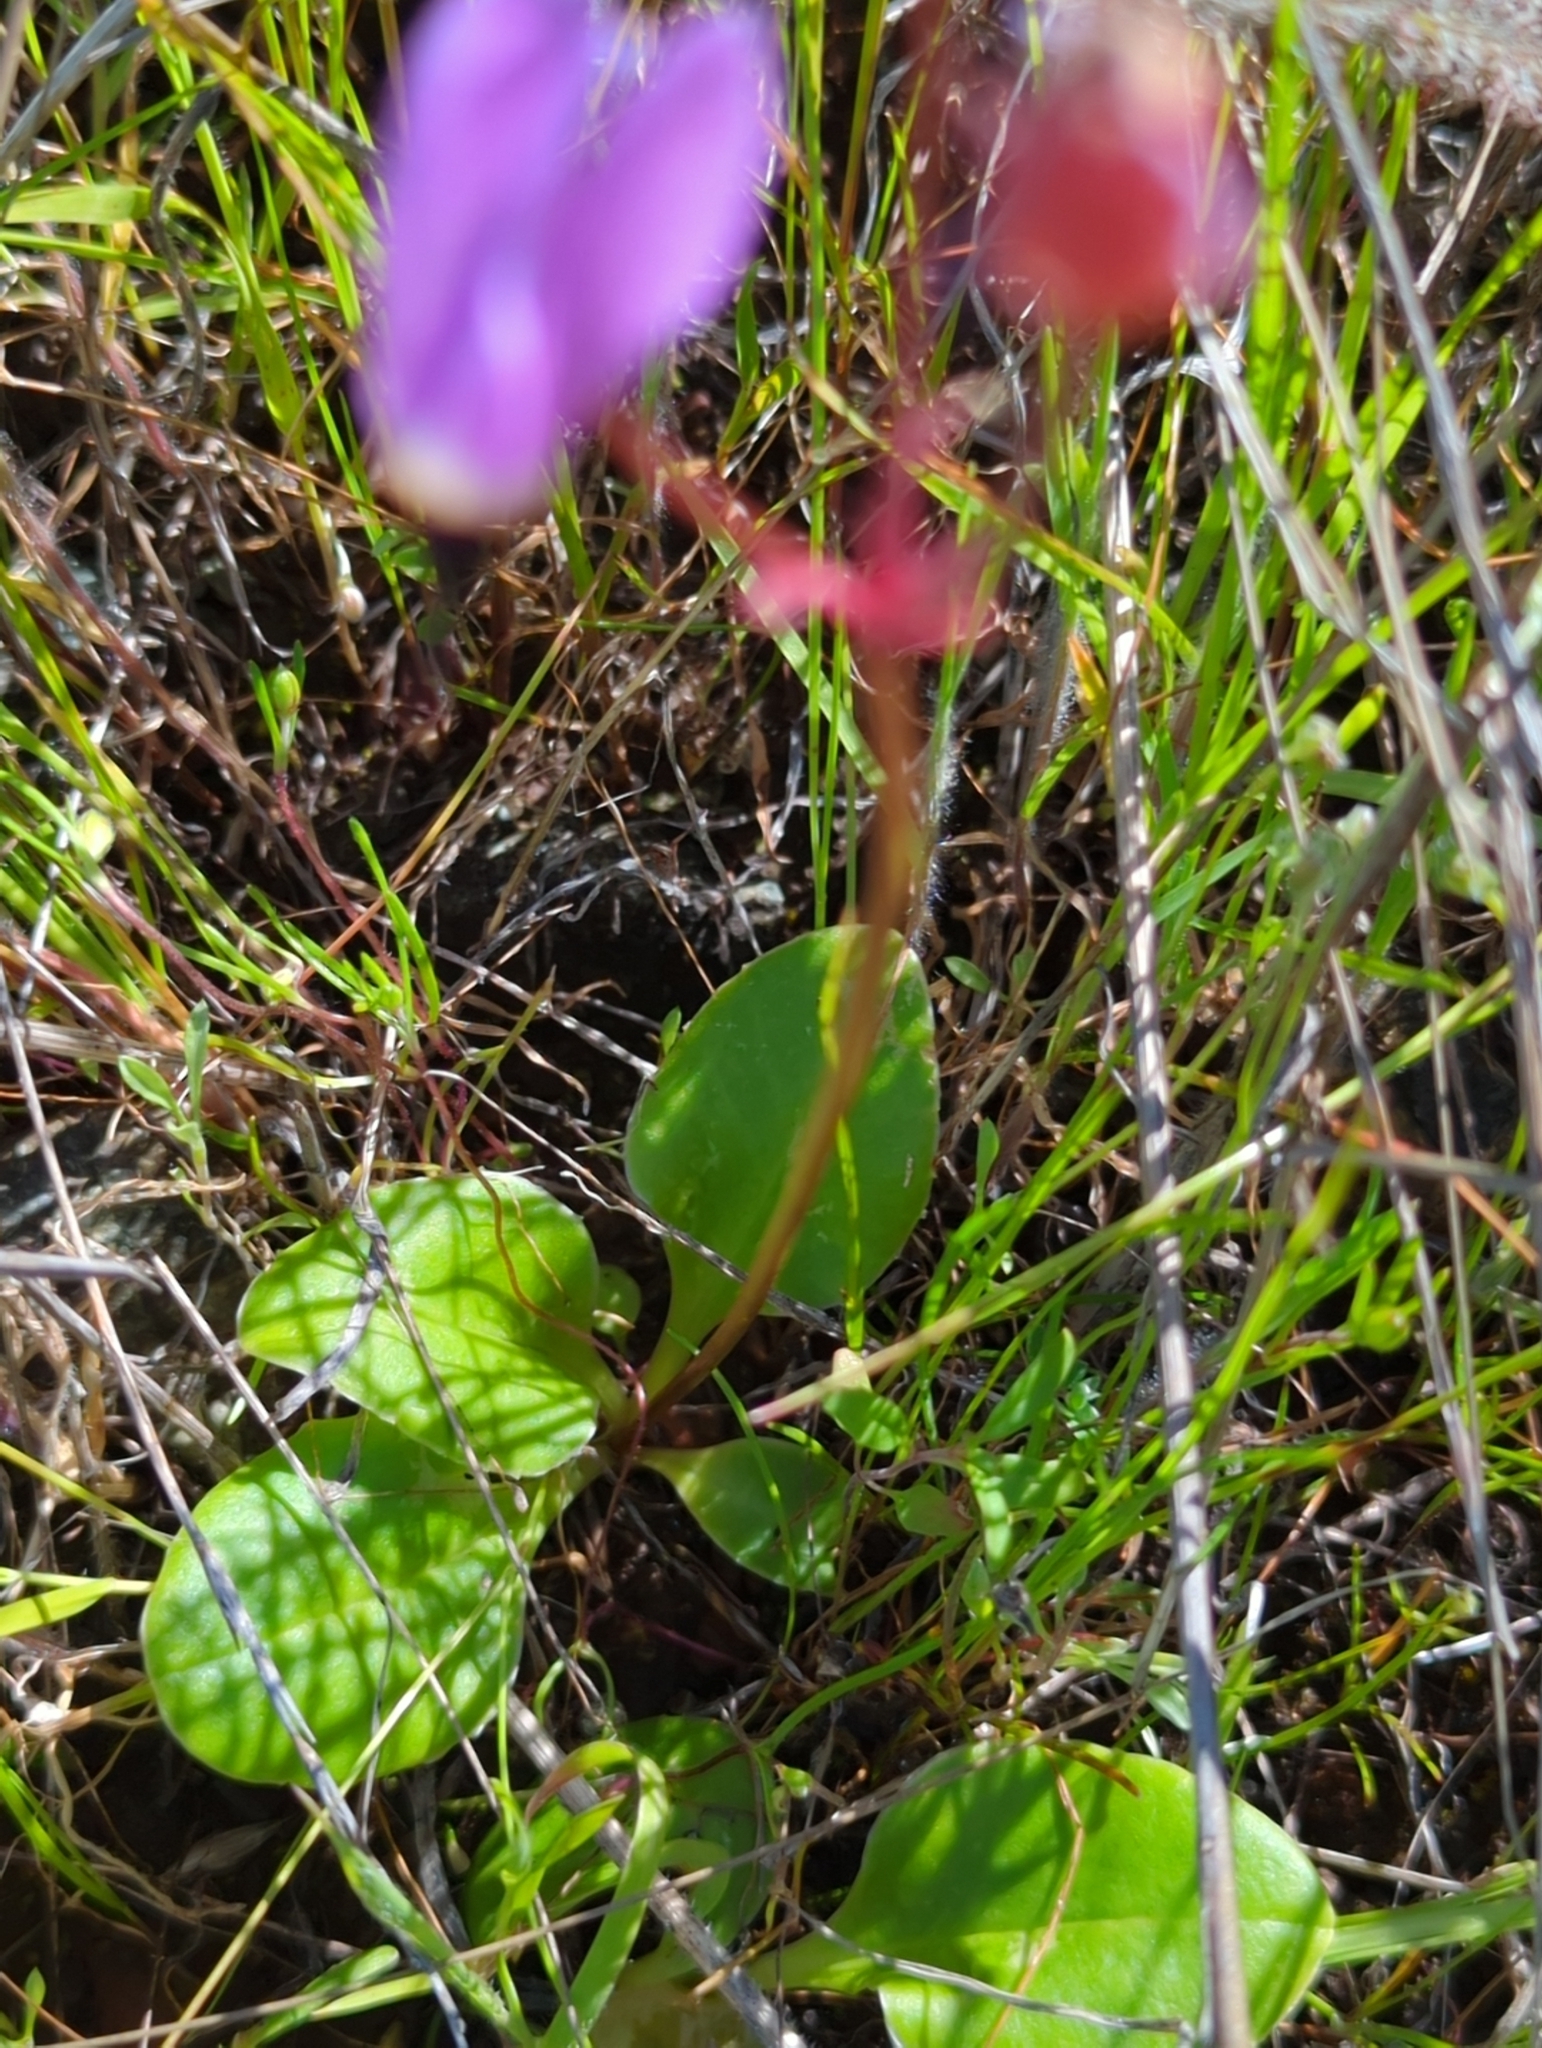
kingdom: Plantae
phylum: Tracheophyta
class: Magnoliopsida
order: Ericales
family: Primulaceae
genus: Dodecatheon
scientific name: Dodecatheon hendersonii
